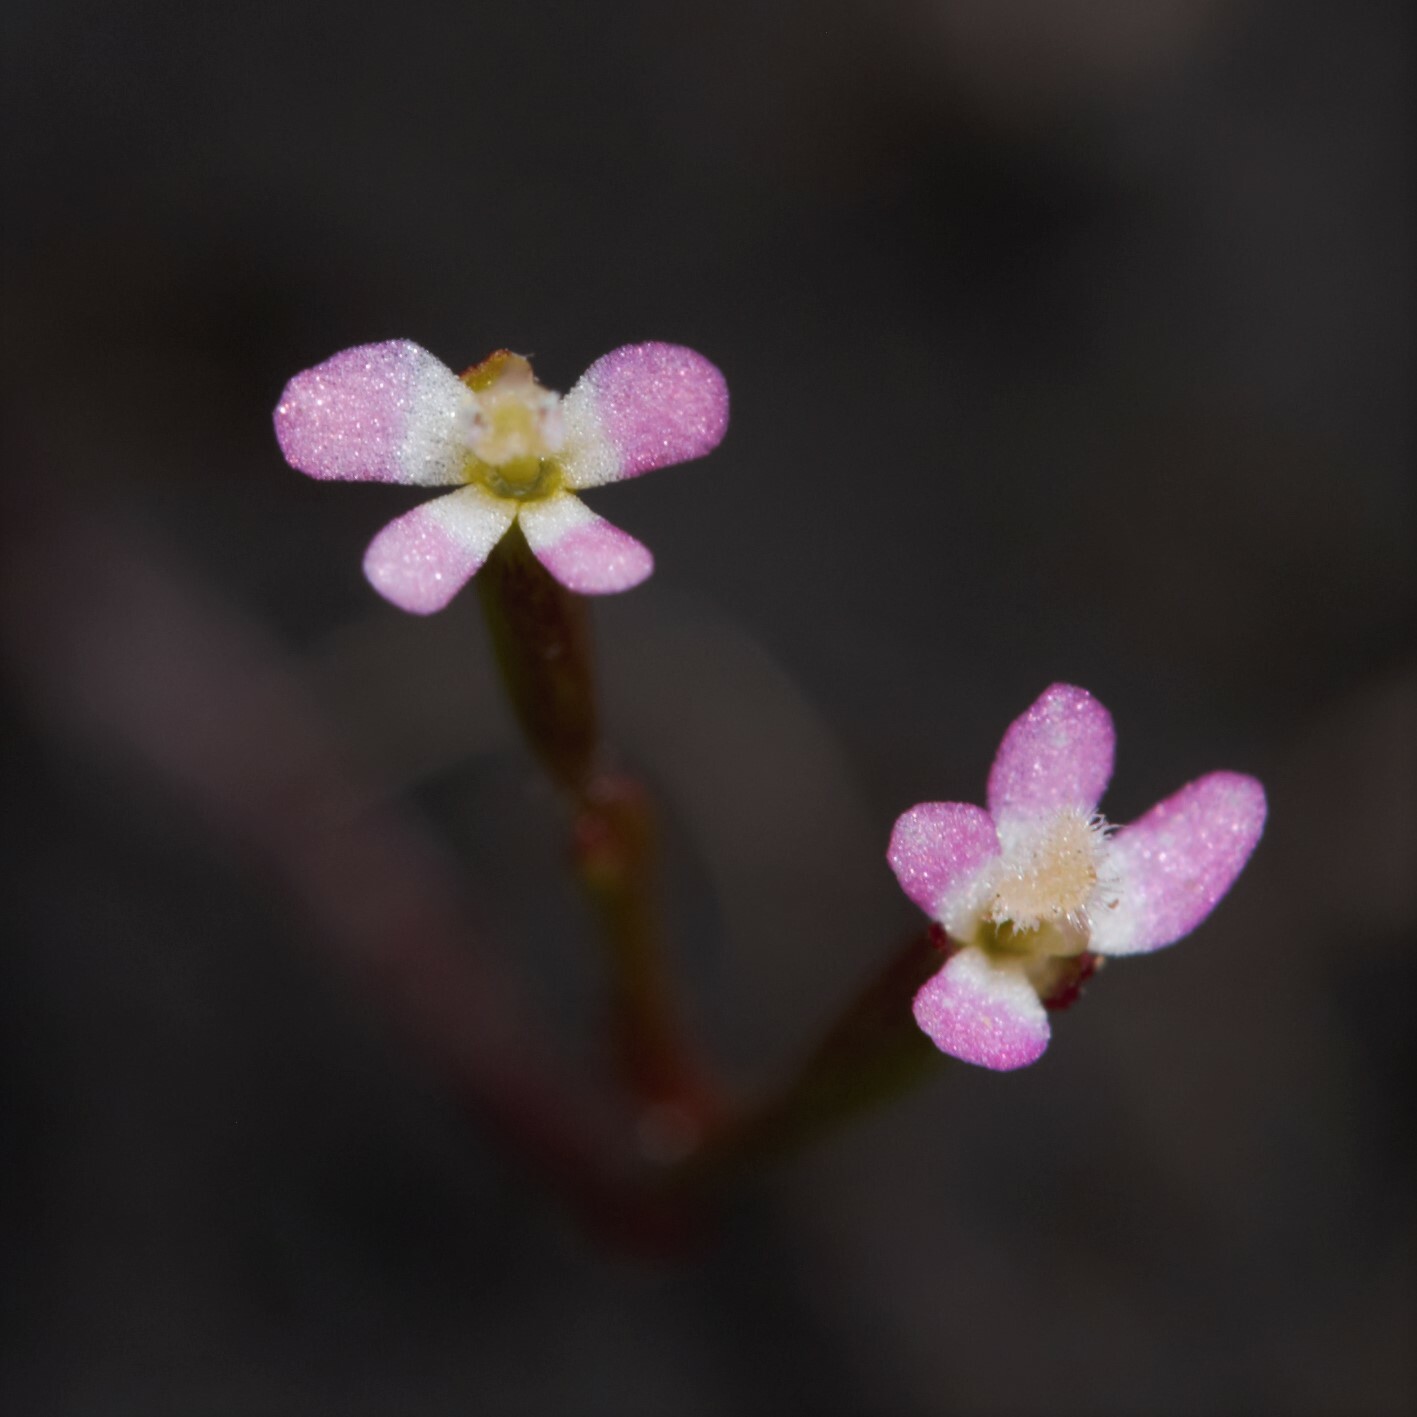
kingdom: Plantae
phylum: Tracheophyta
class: Magnoliopsida
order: Asterales
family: Stylidiaceae
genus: Stylidium
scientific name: Stylidium despectum
